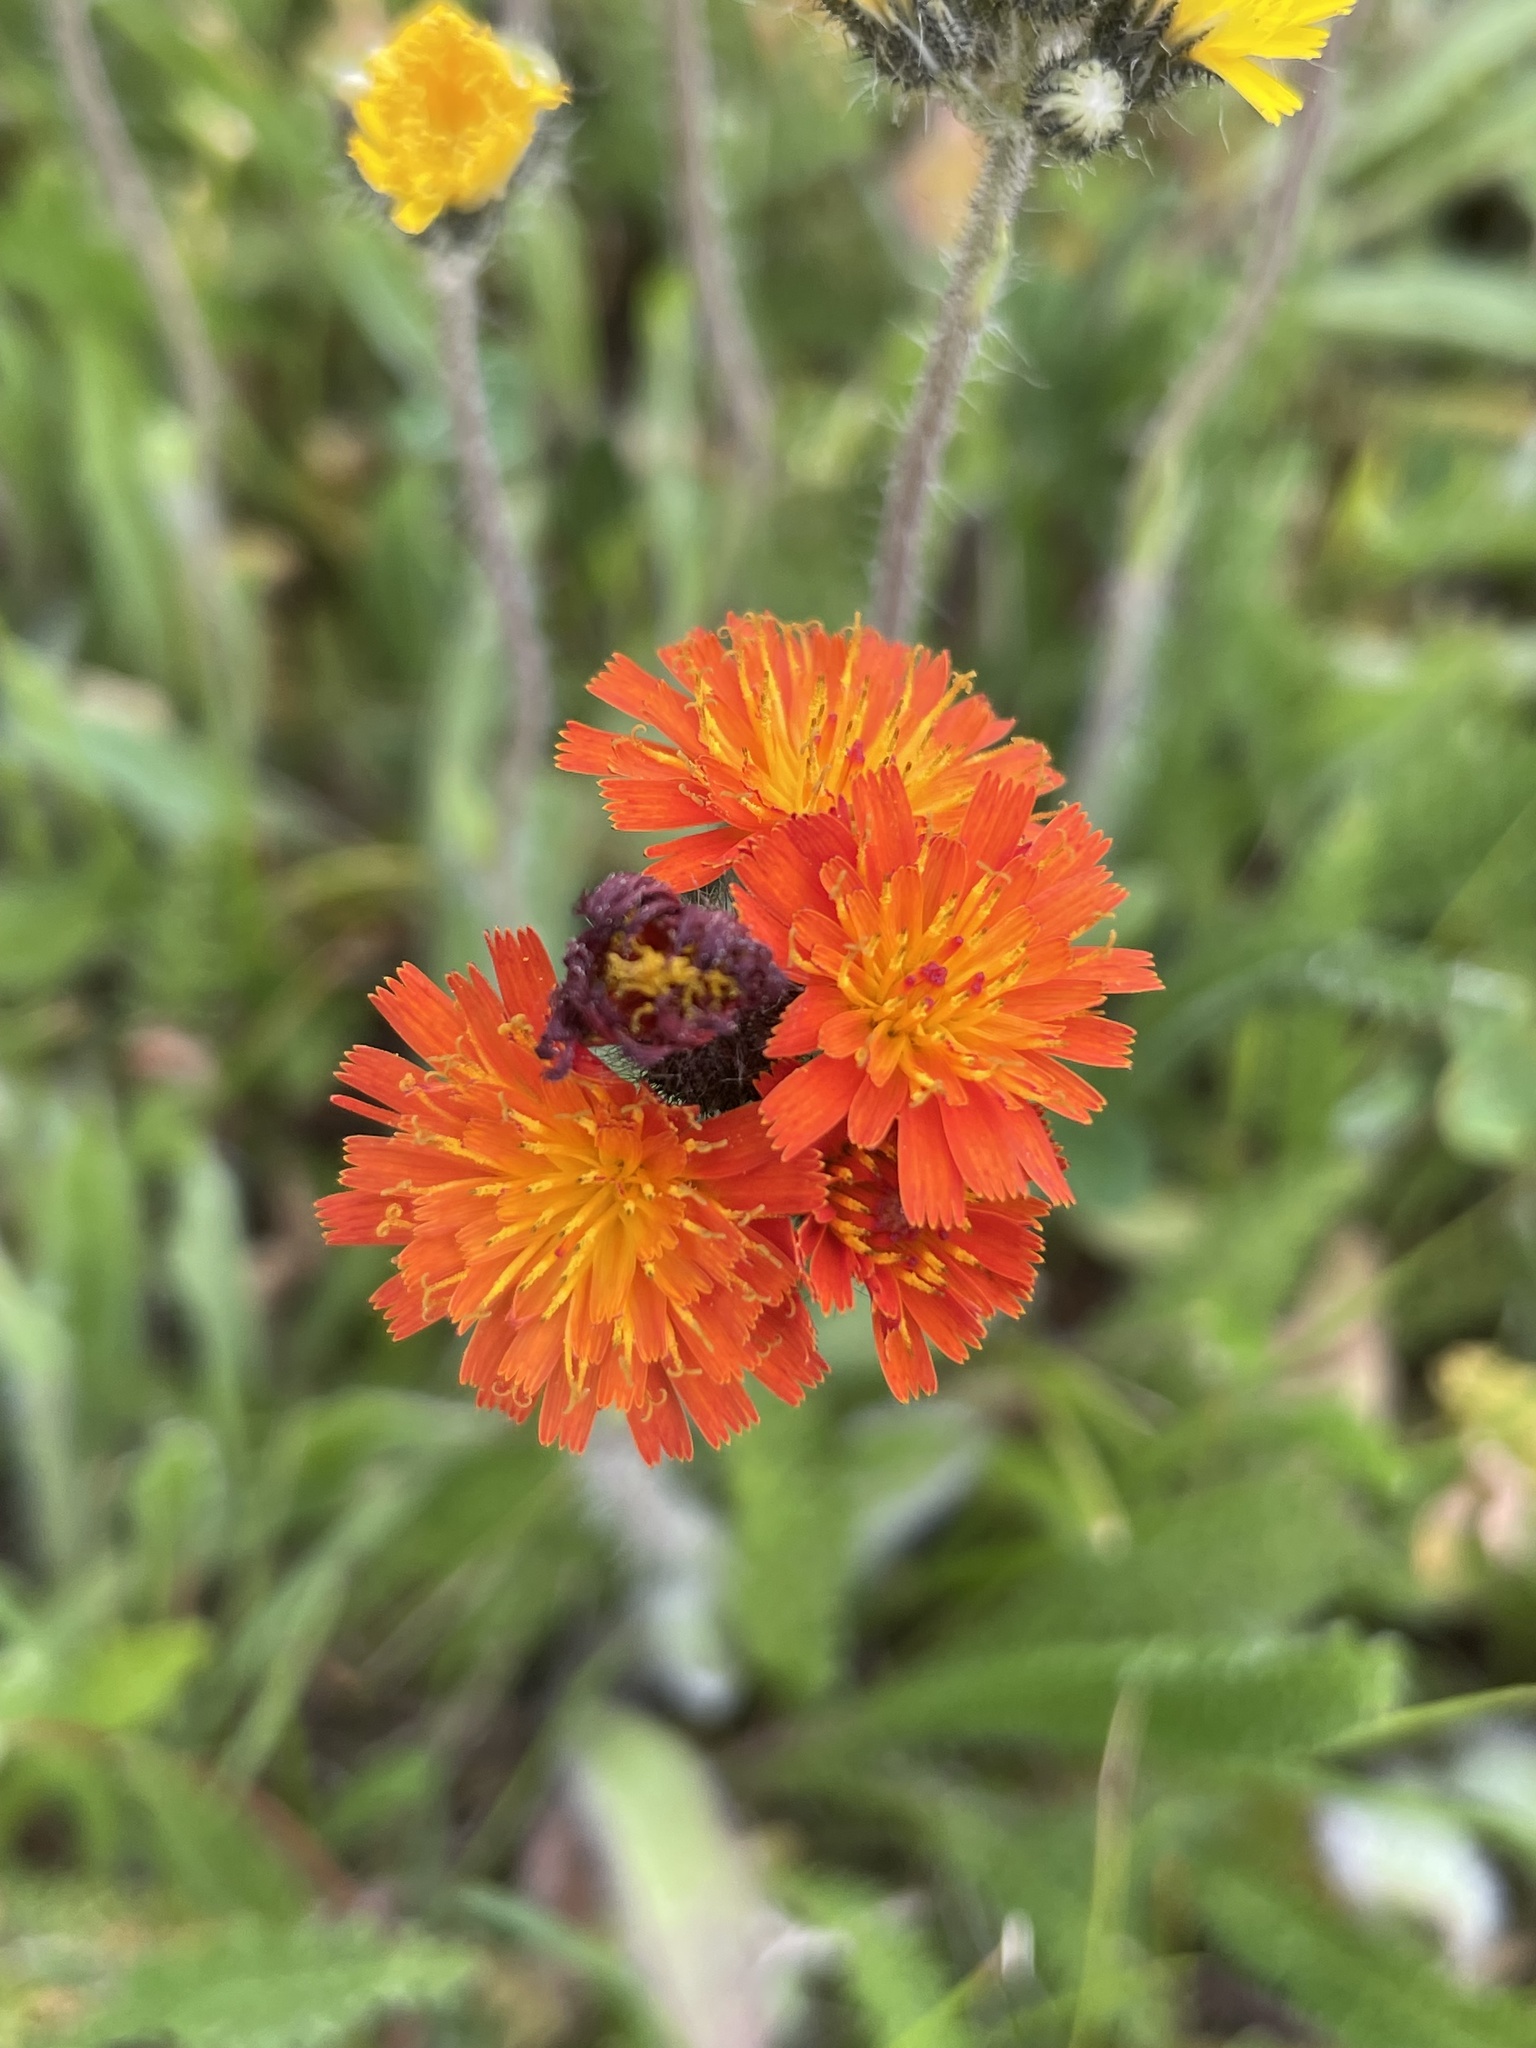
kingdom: Plantae
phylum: Tracheophyta
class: Magnoliopsida
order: Asterales
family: Asteraceae
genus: Pilosella
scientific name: Pilosella aurantiaca
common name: Fox-and-cubs
